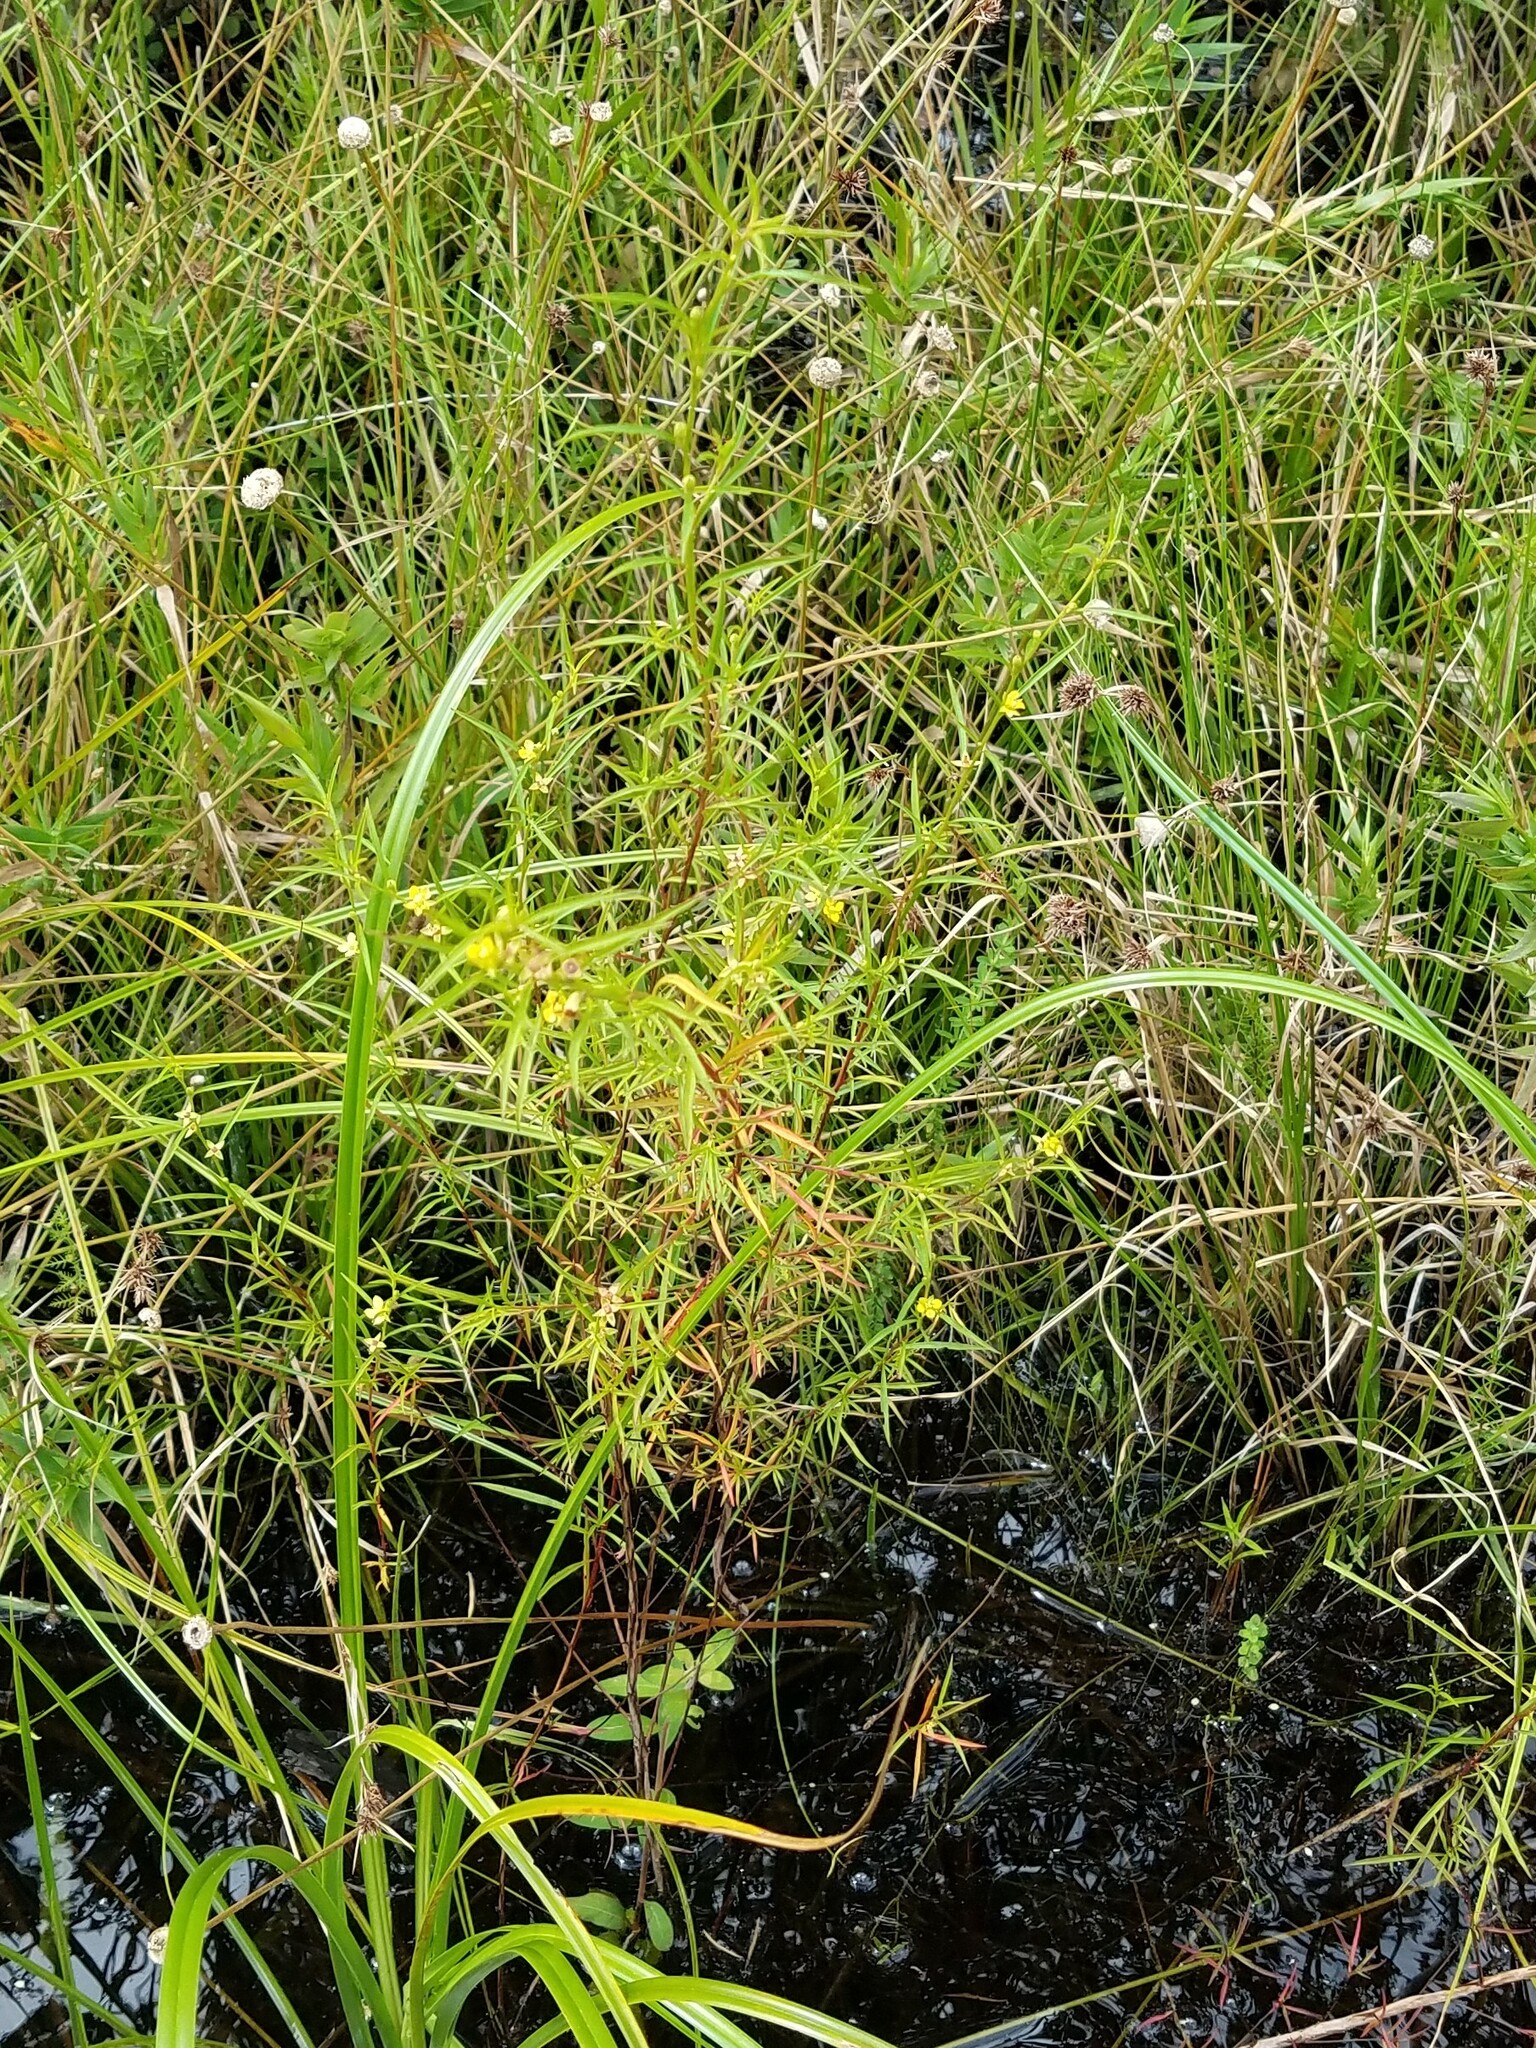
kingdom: Plantae
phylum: Tracheophyta
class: Magnoliopsida
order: Myrtales
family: Onagraceae
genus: Ludwigia
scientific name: Ludwigia linearis
